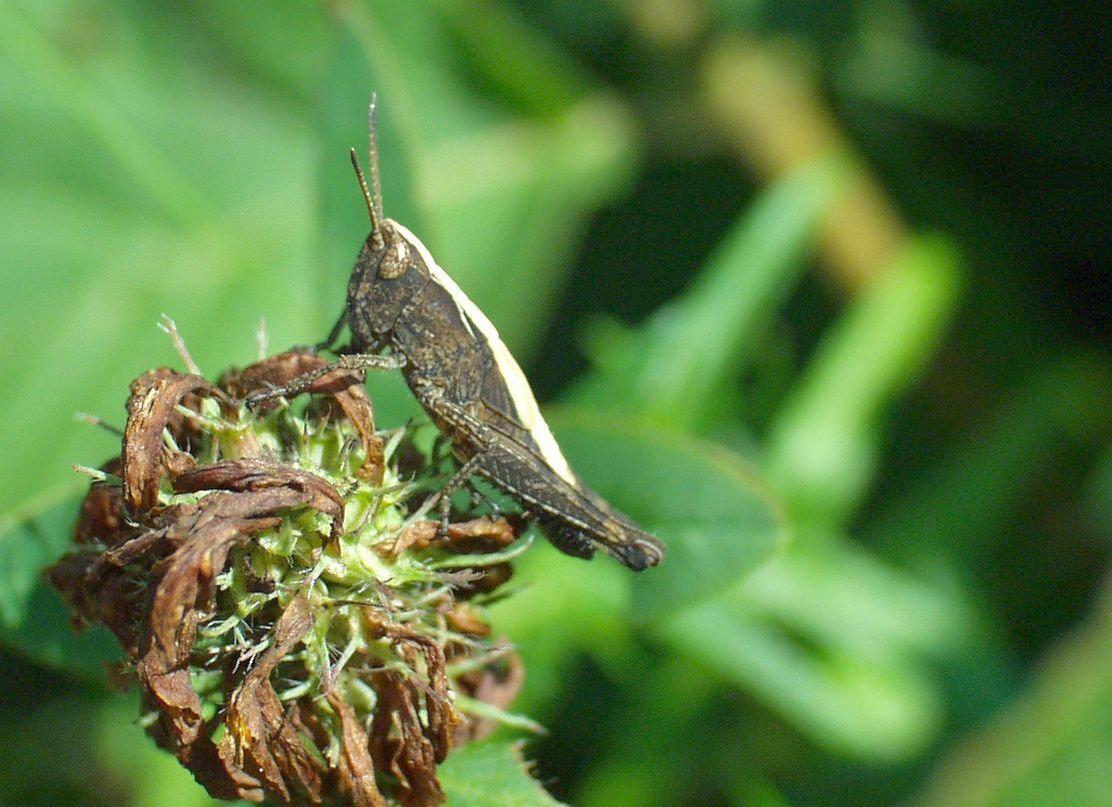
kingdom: Animalia
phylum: Arthropoda
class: Insecta
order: Orthoptera
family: Acrididae
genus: Gomphocerippus
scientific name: Gomphocerippus rufus
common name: Rufous grasshopper
